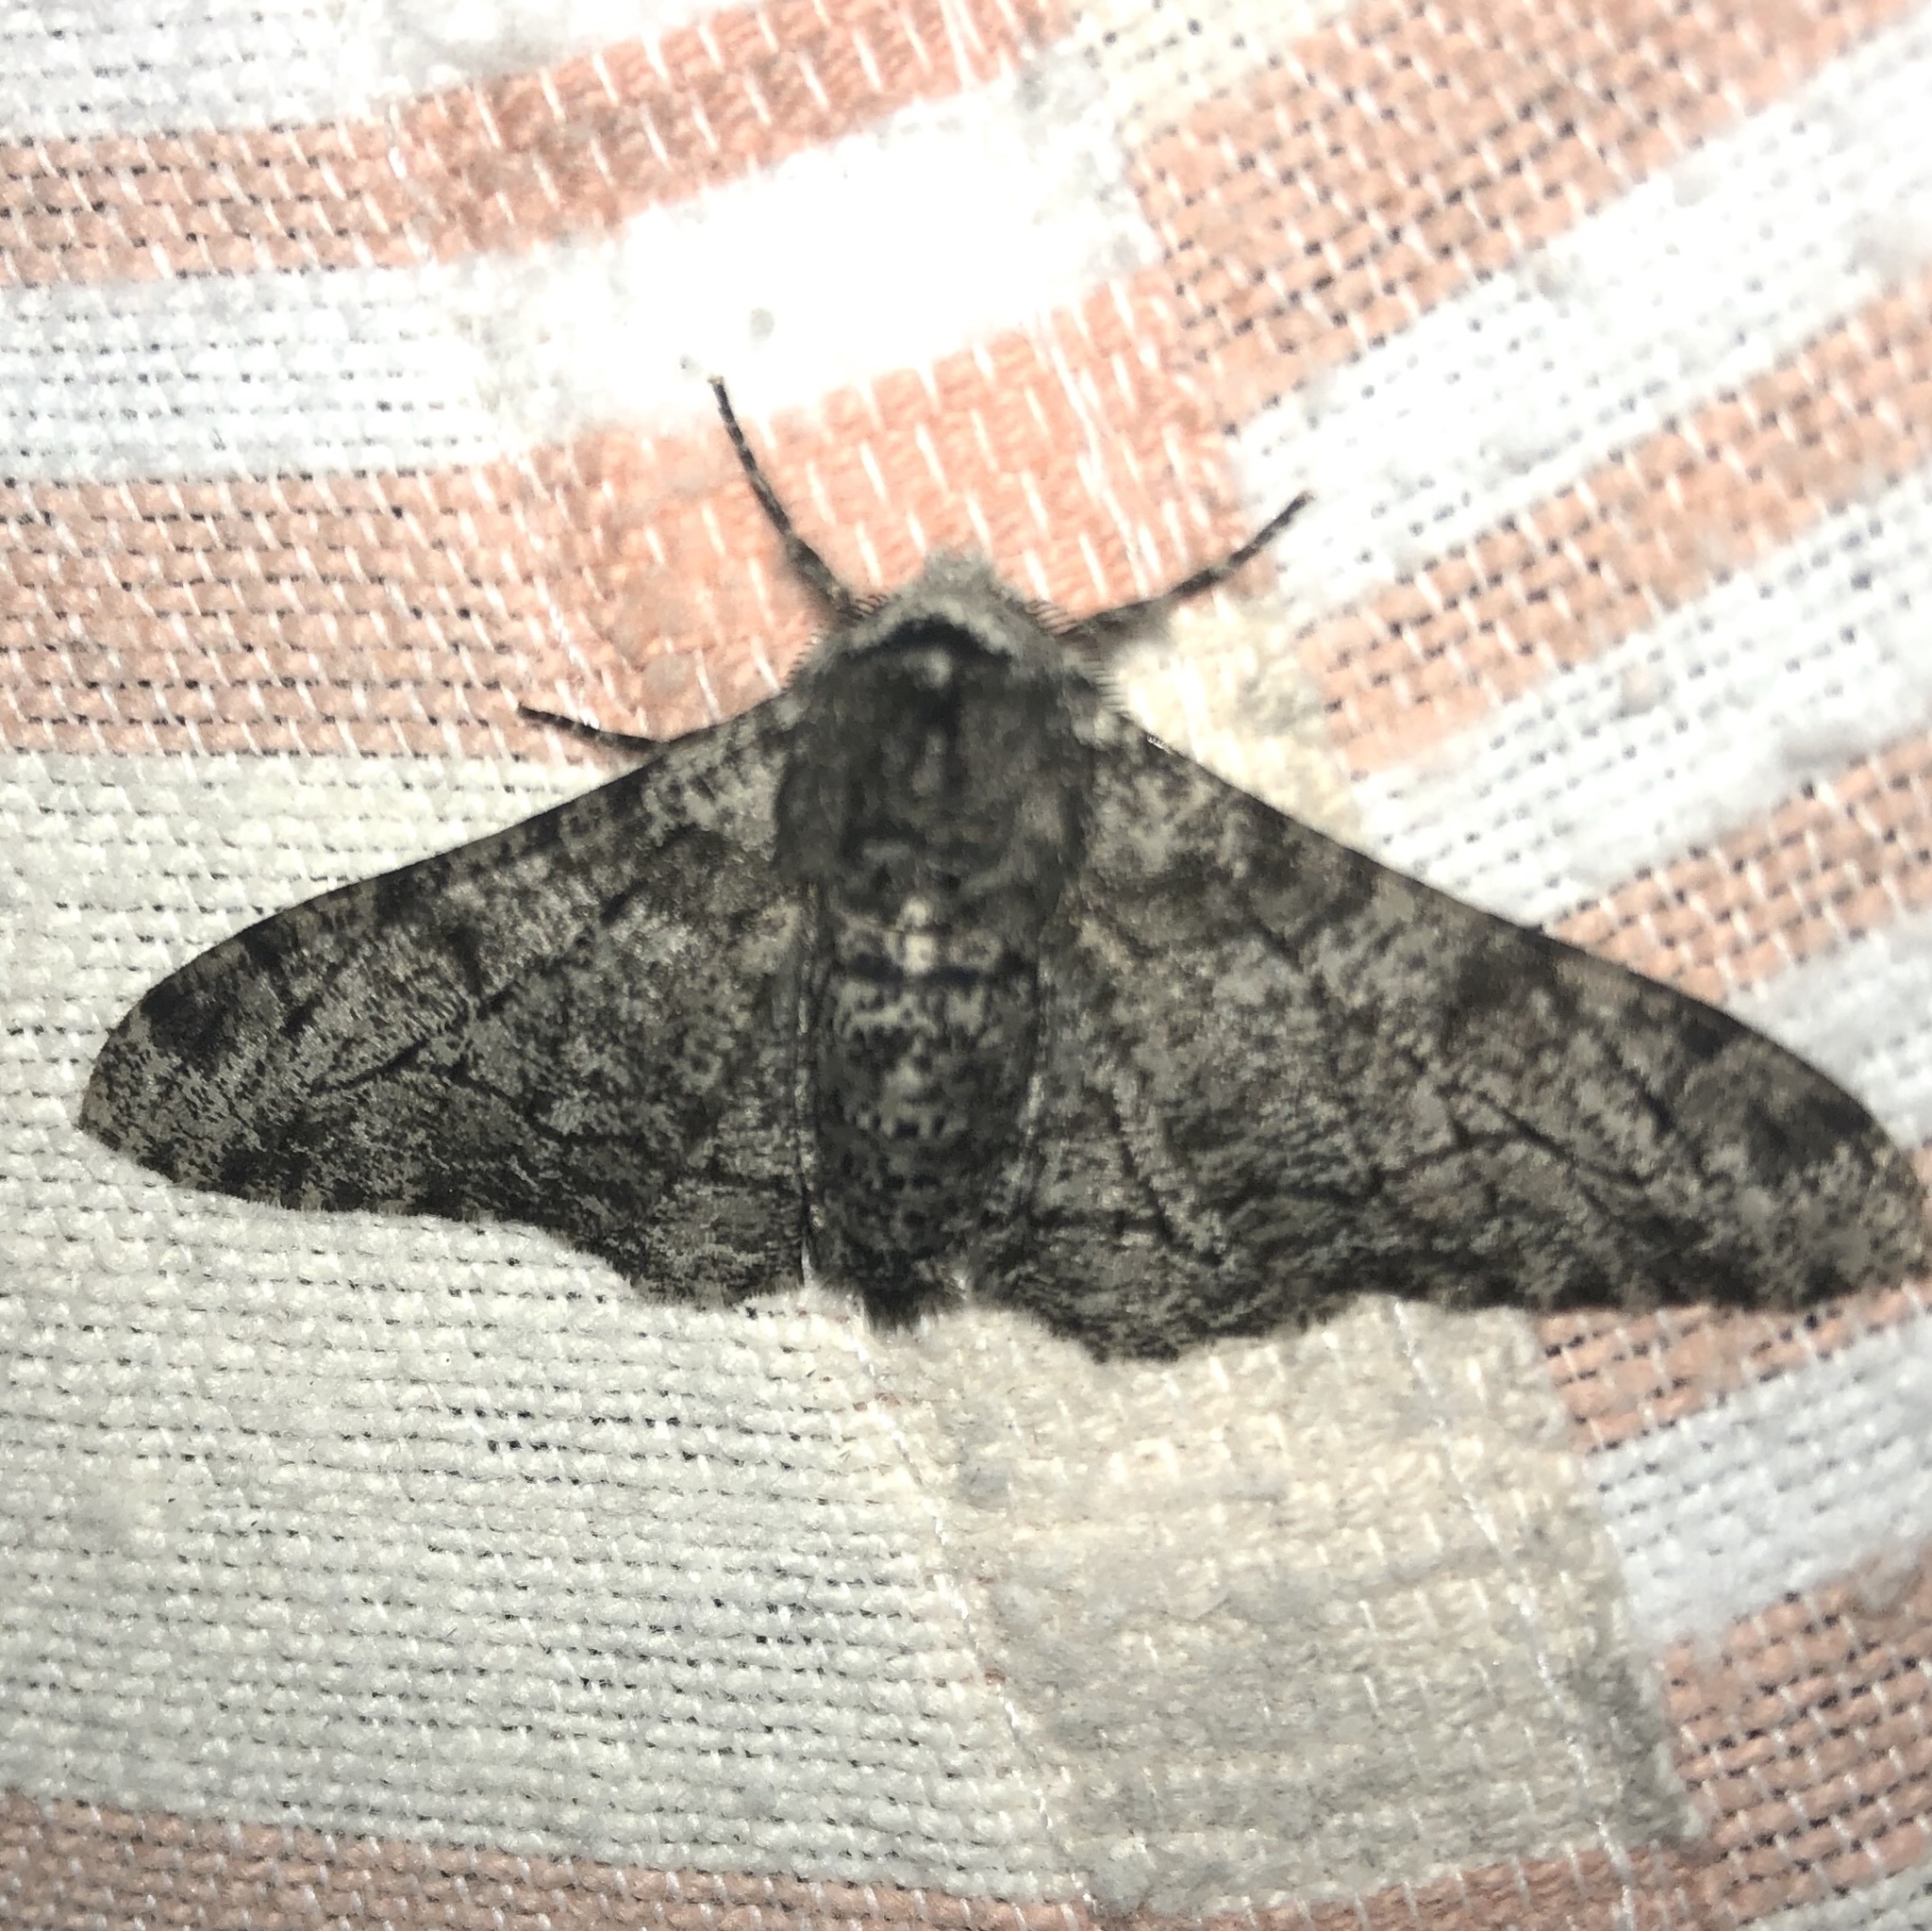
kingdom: Animalia
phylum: Arthropoda
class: Insecta
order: Lepidoptera
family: Geometridae
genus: Biston
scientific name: Biston betularia
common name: Peppered moth
